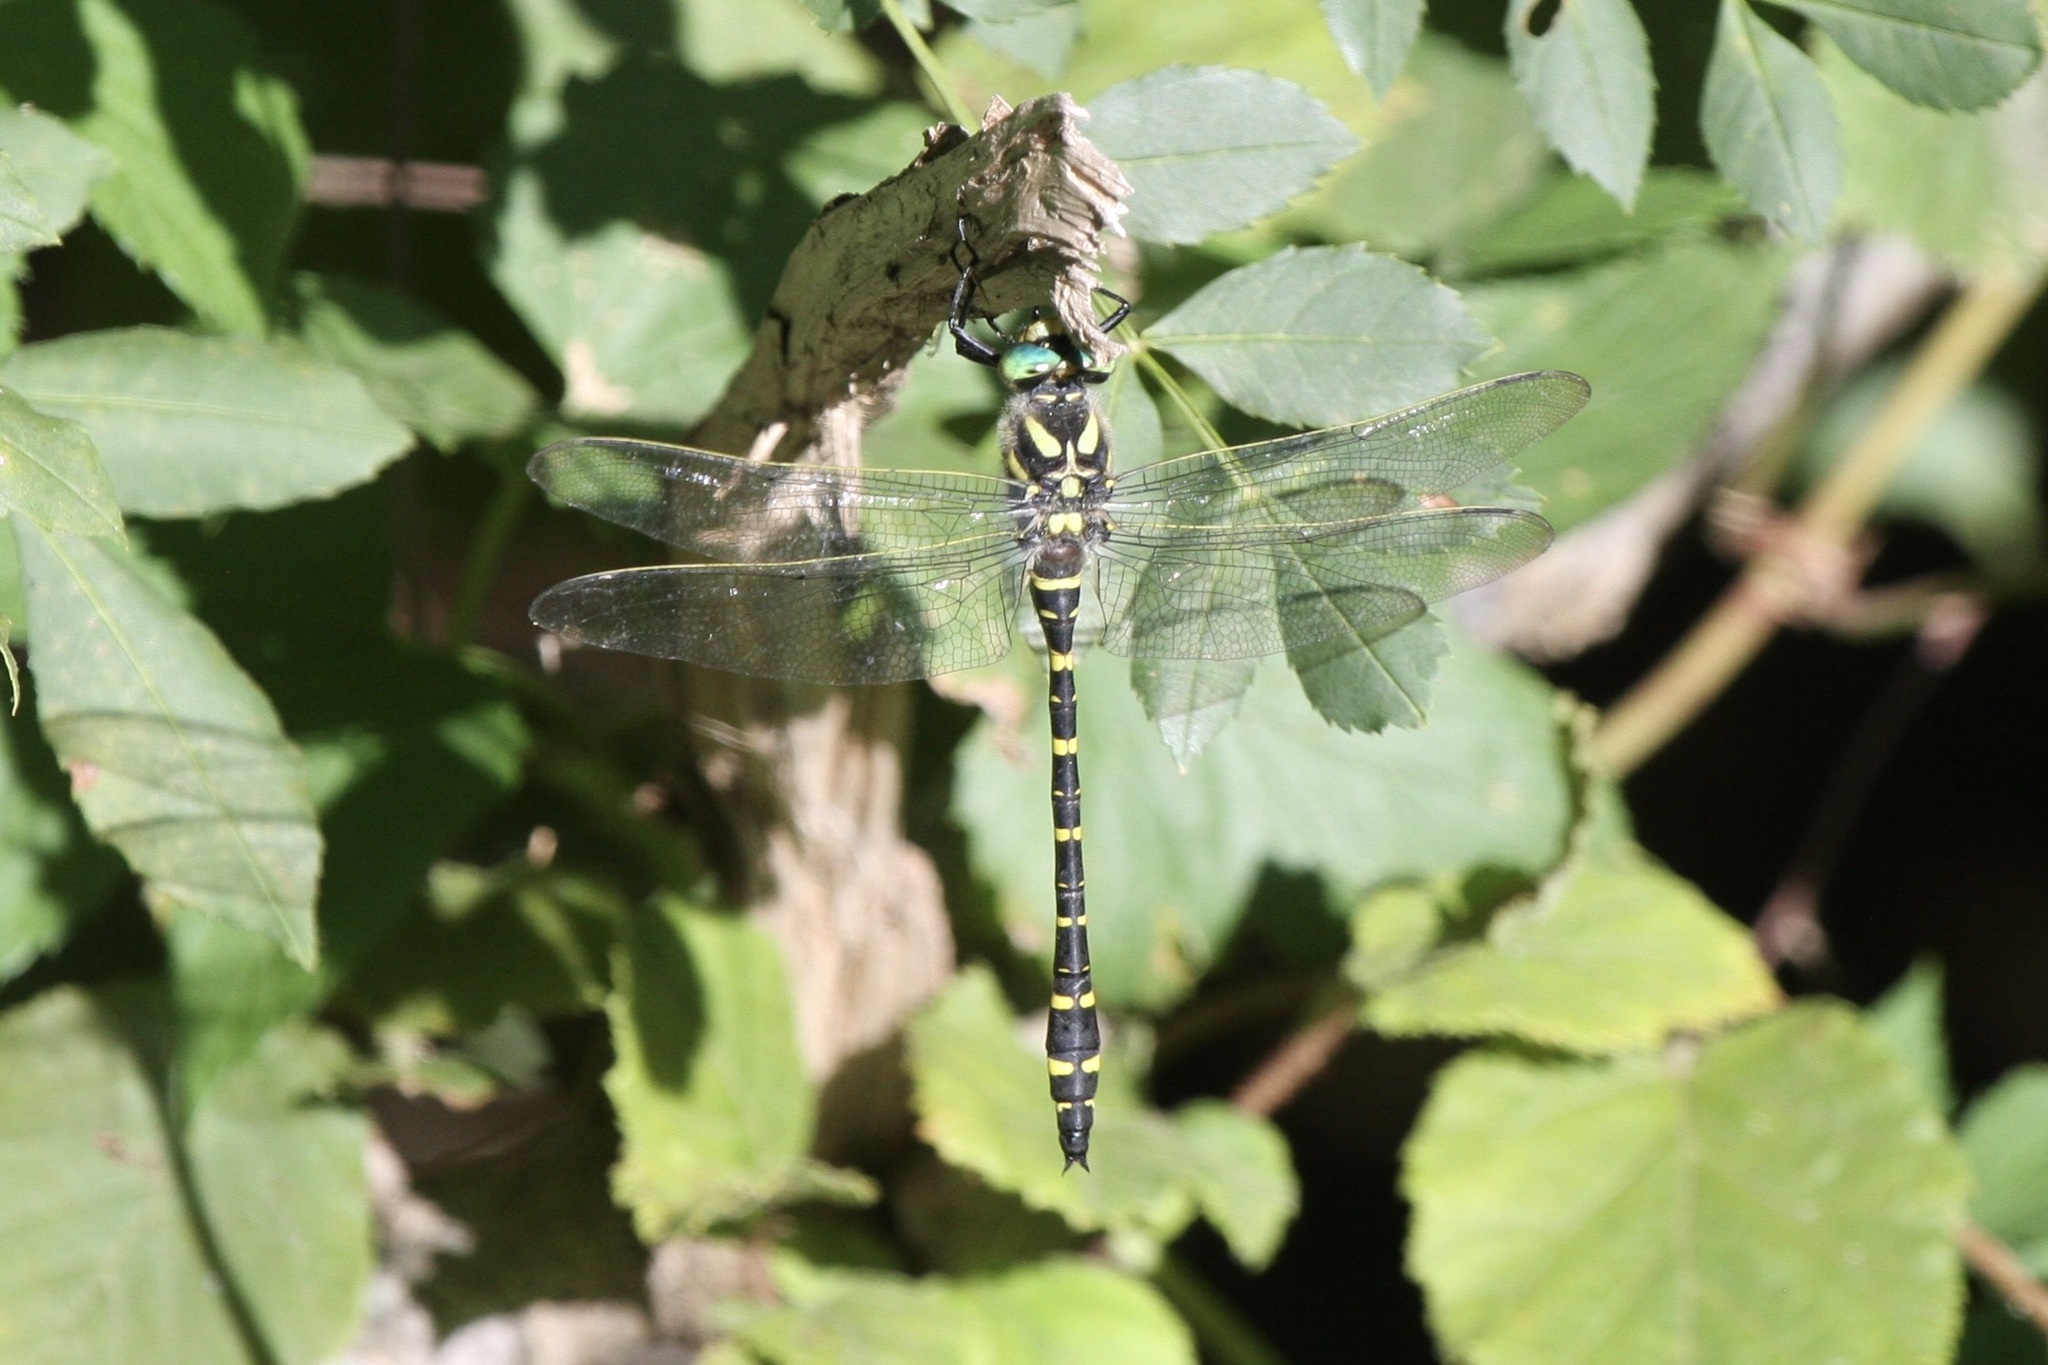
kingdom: Animalia
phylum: Arthropoda
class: Insecta
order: Odonata
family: Cordulegastridae
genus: Cordulegaster
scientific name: Cordulegaster boltonii
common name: Golden-ringed dragonfly
